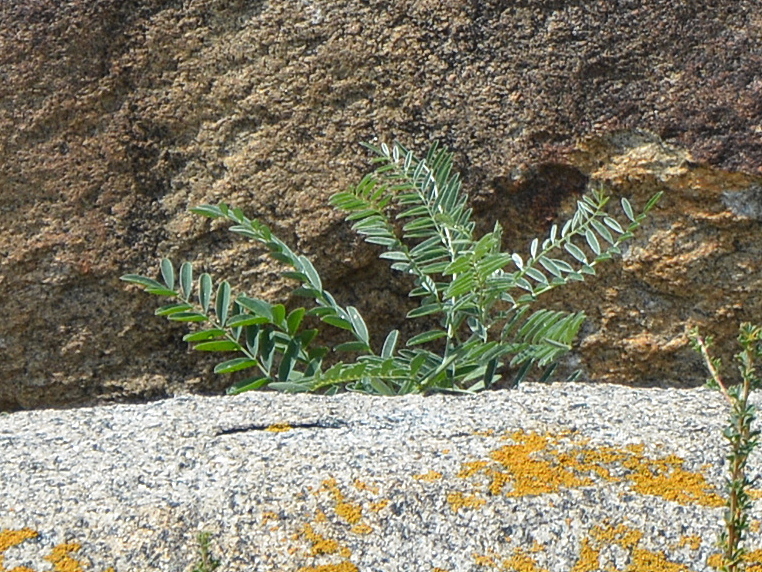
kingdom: Plantae
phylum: Tracheophyta
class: Magnoliopsida
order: Fabales
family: Fabaceae
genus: Sophora
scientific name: Sophora alopecuroides
